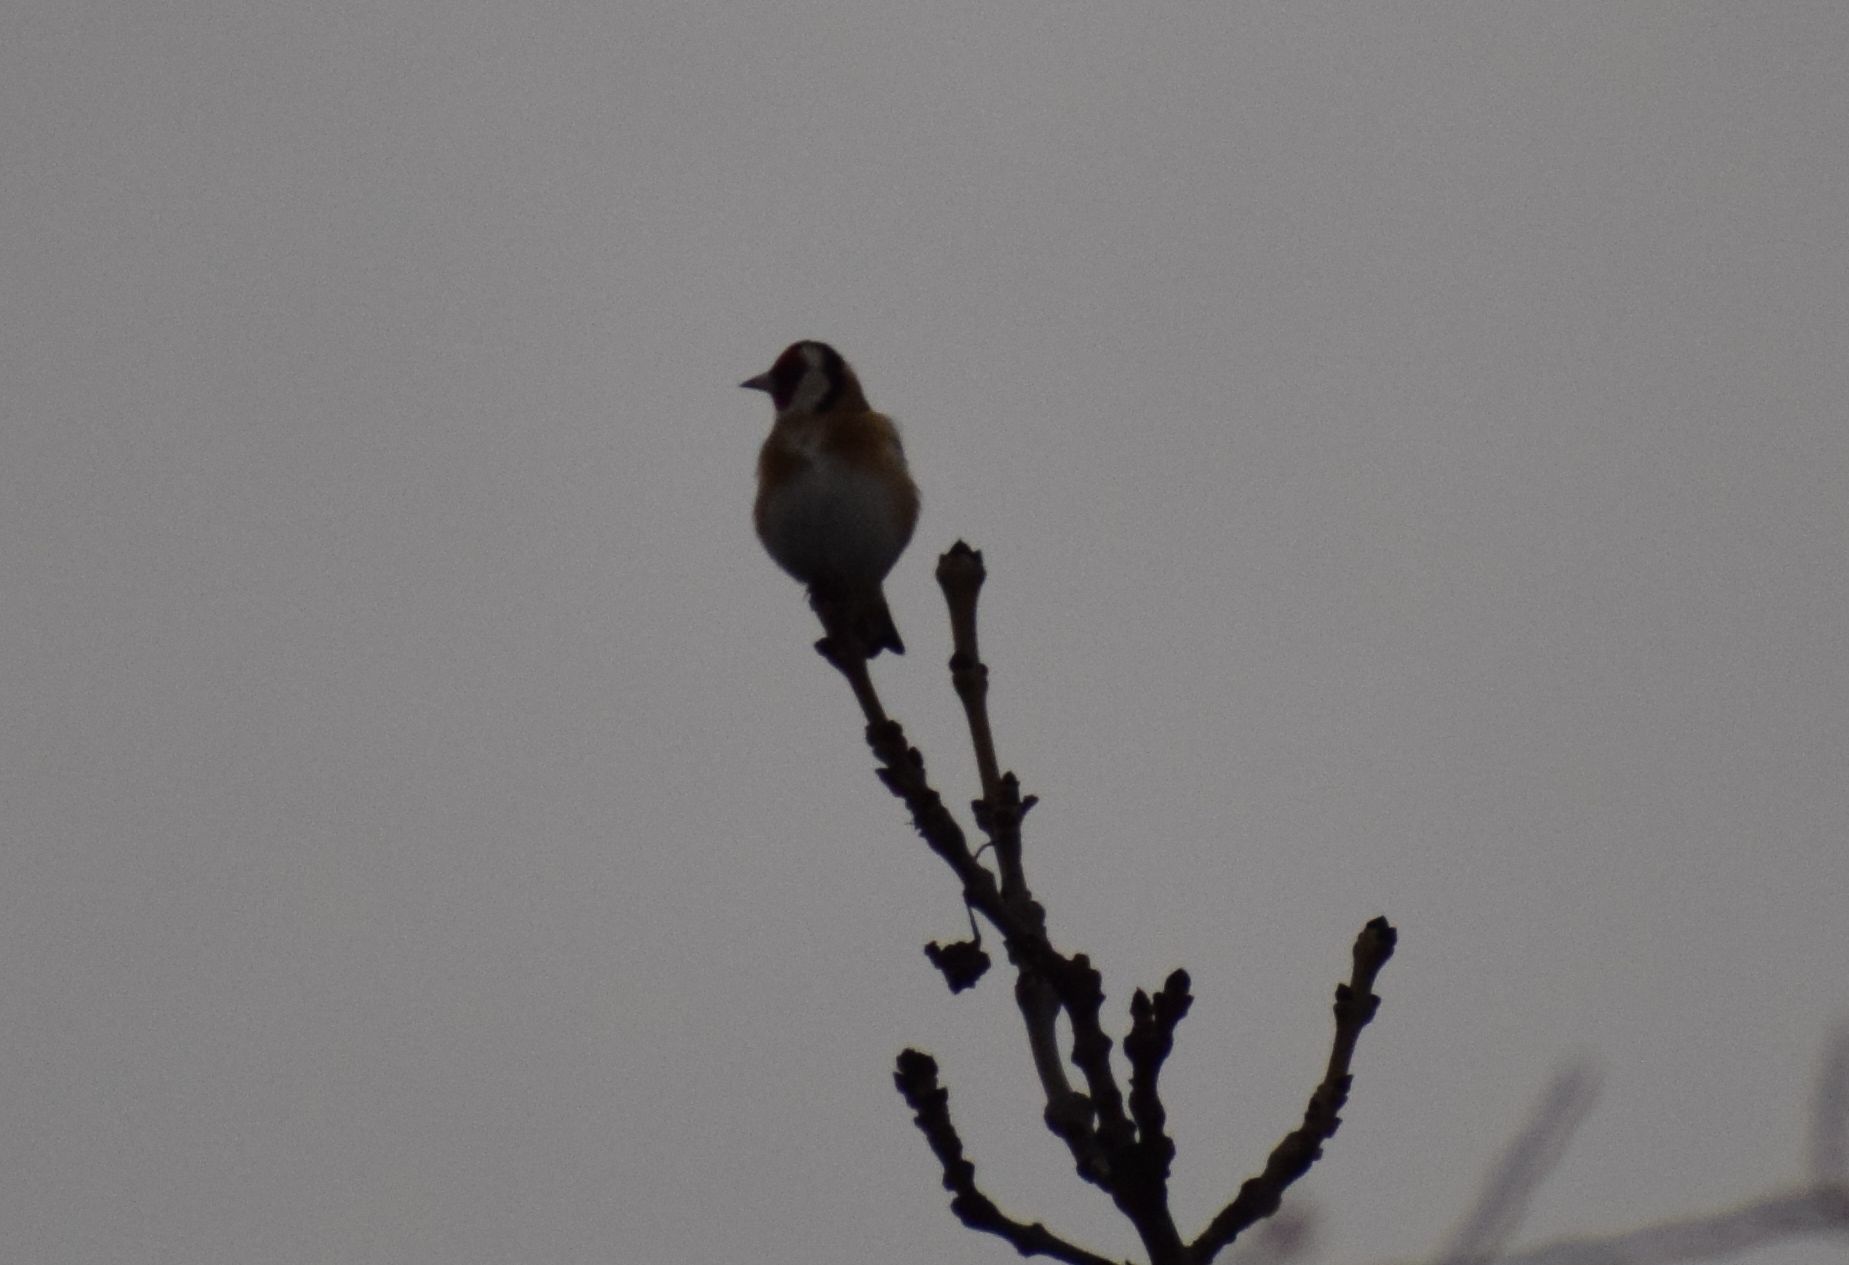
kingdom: Animalia
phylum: Chordata
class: Aves
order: Passeriformes
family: Fringillidae
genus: Carduelis
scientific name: Carduelis carduelis
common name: European goldfinch
